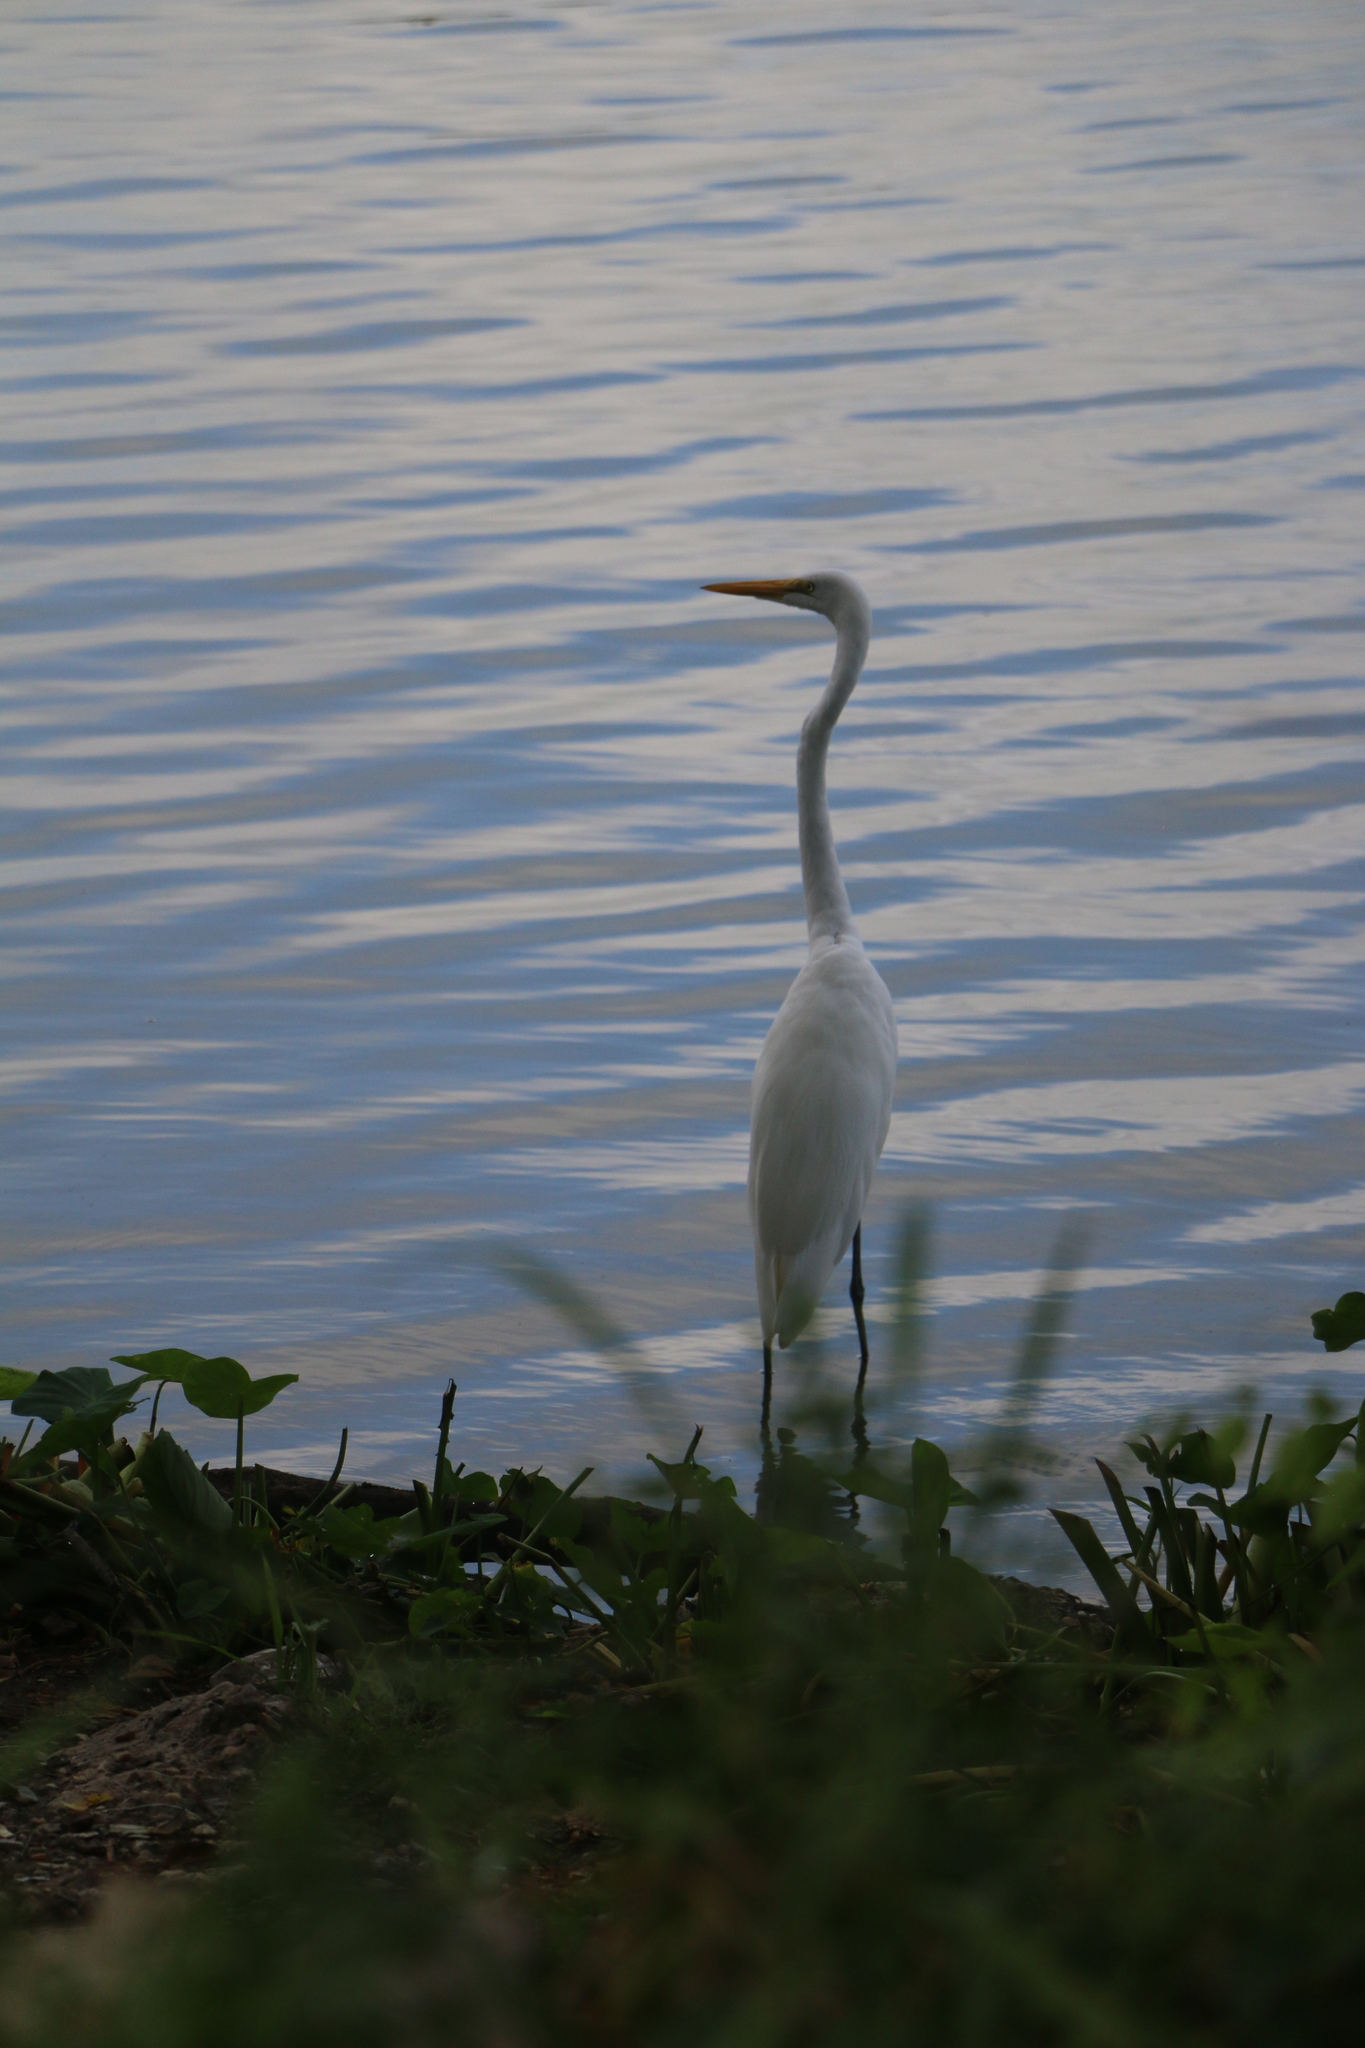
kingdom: Animalia
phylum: Chordata
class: Aves
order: Pelecaniformes
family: Ardeidae
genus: Ardea
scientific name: Ardea alba
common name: Great egret
